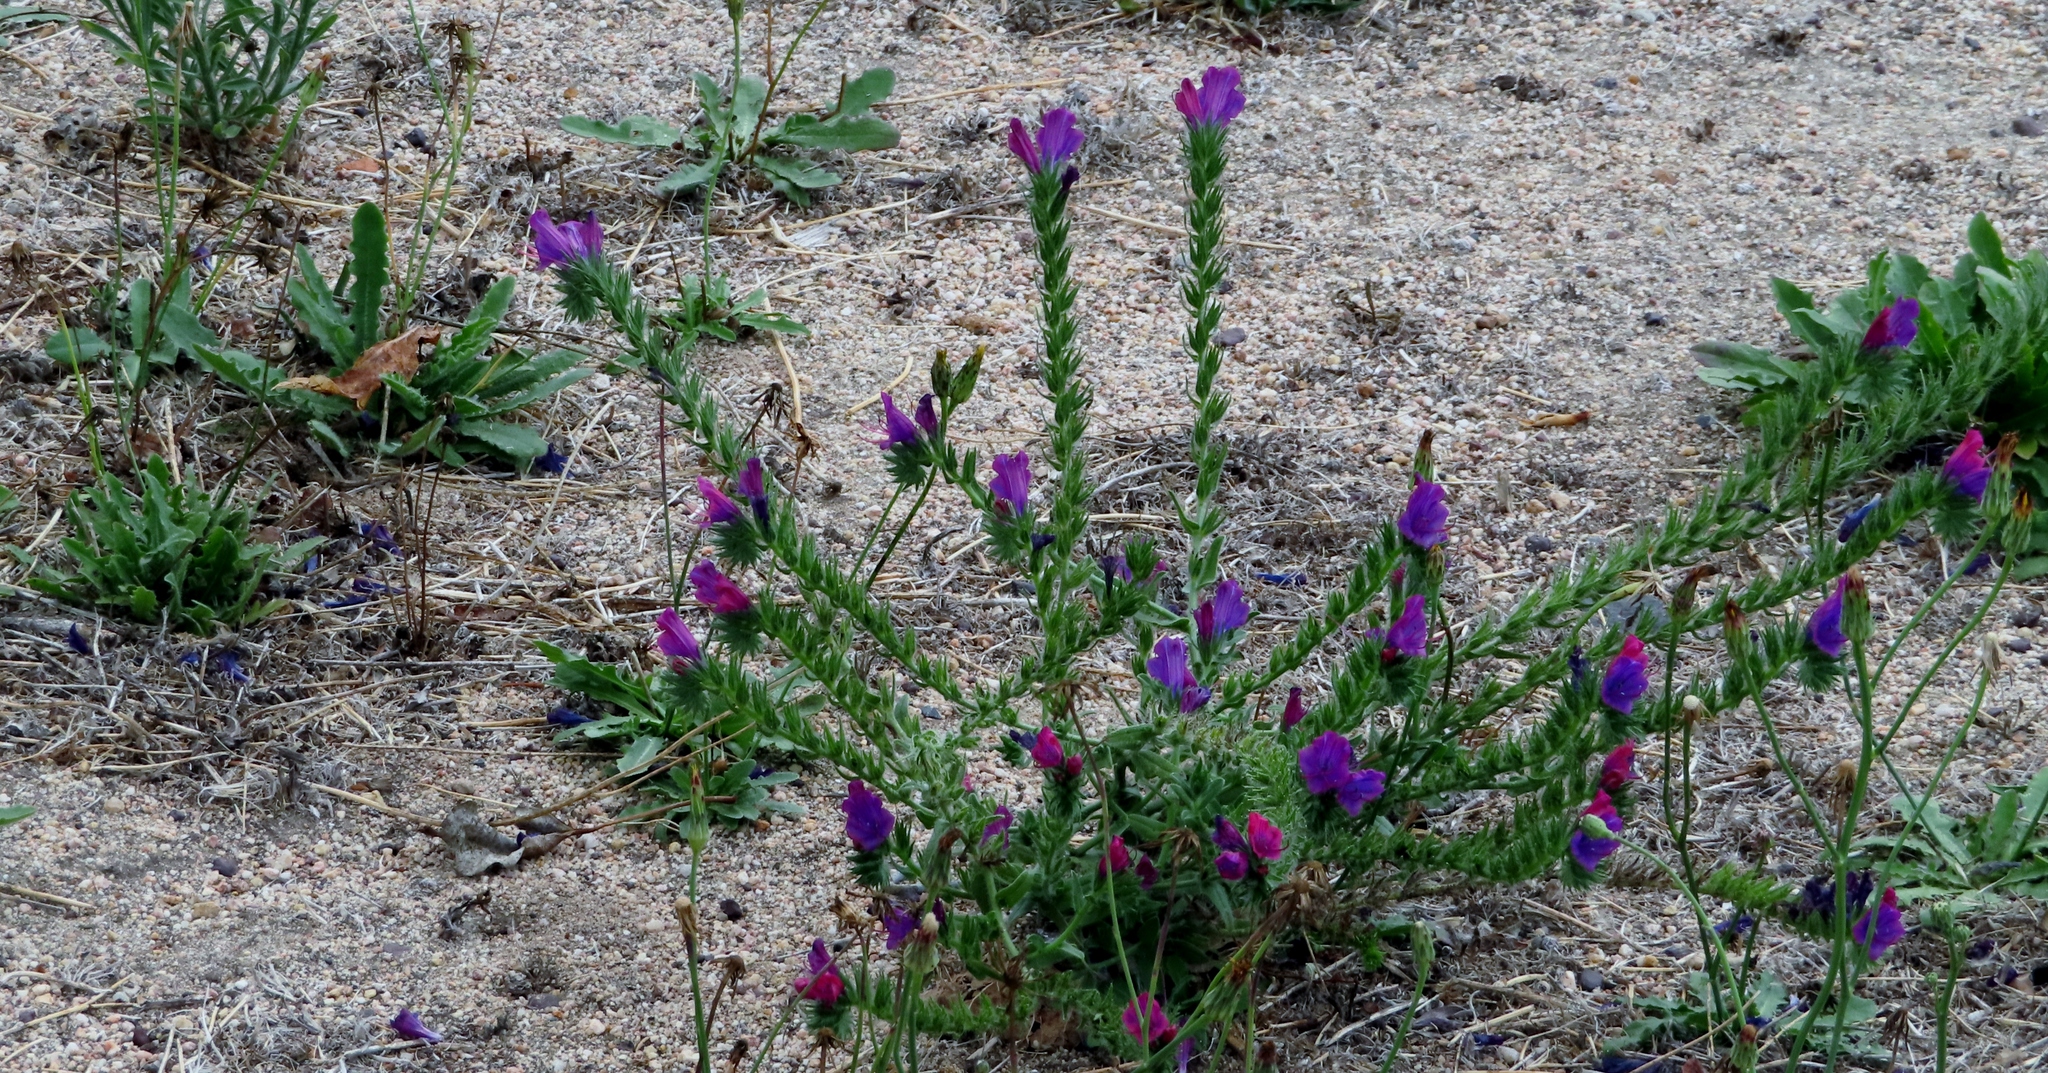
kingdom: Plantae
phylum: Tracheophyta
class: Magnoliopsida
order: Boraginales
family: Boraginaceae
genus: Echium
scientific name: Echium plantagineum
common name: Purple viper's-bugloss
